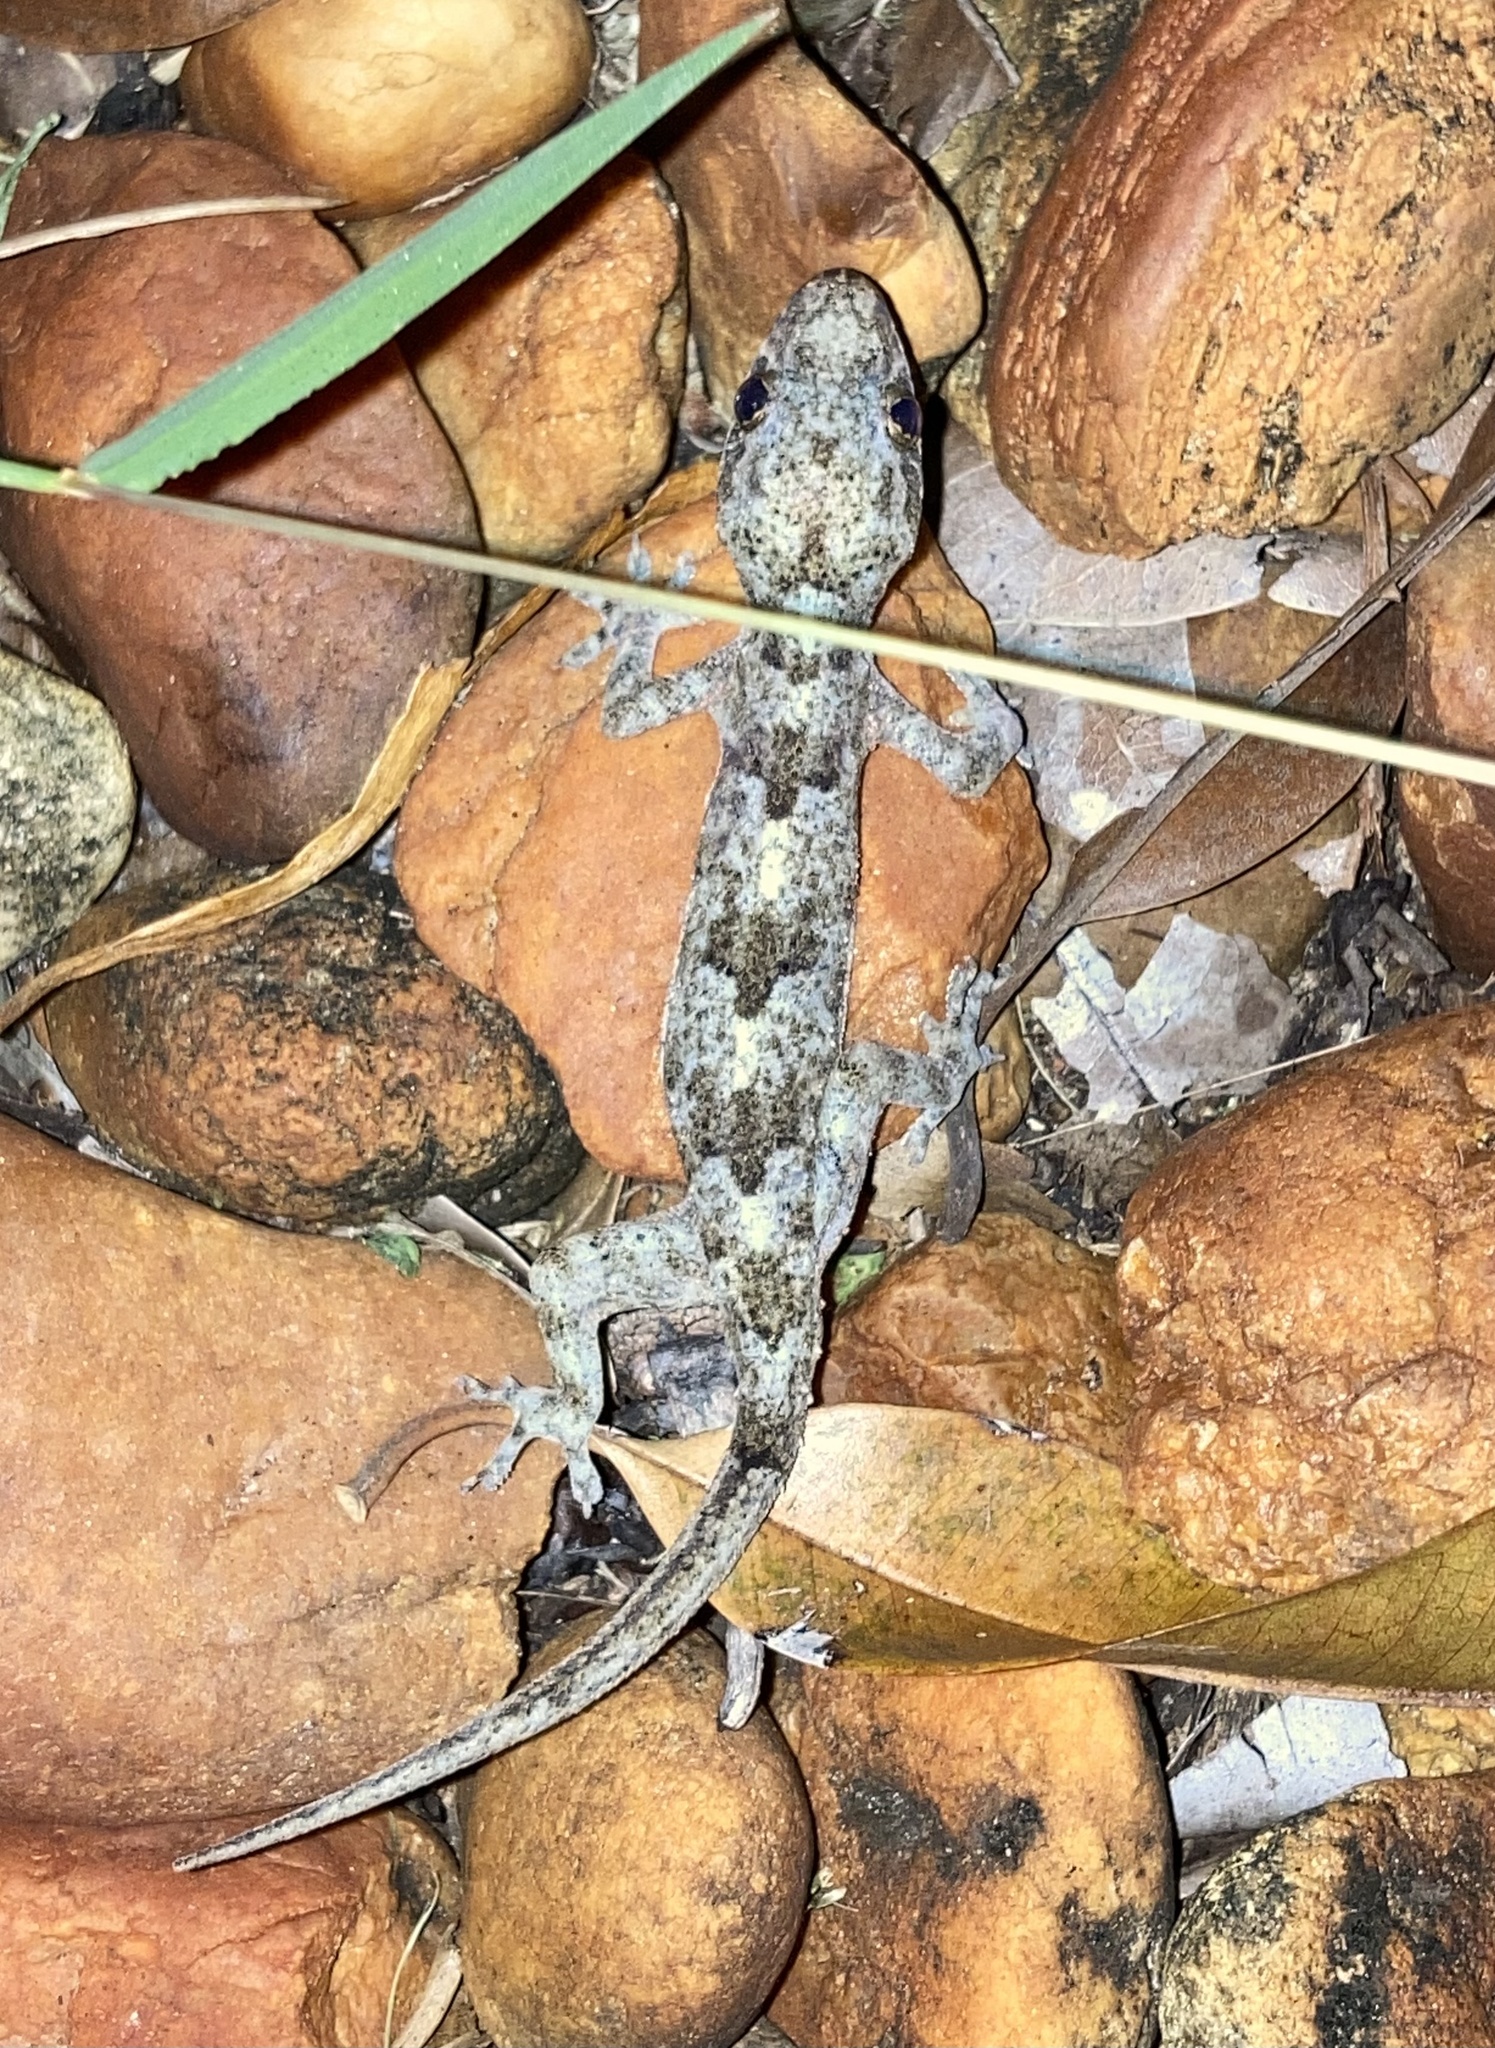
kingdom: Animalia
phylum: Chordata
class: Squamata
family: Gekkonidae
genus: Hemidactylus
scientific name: Hemidactylus mabouia
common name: House gecko
